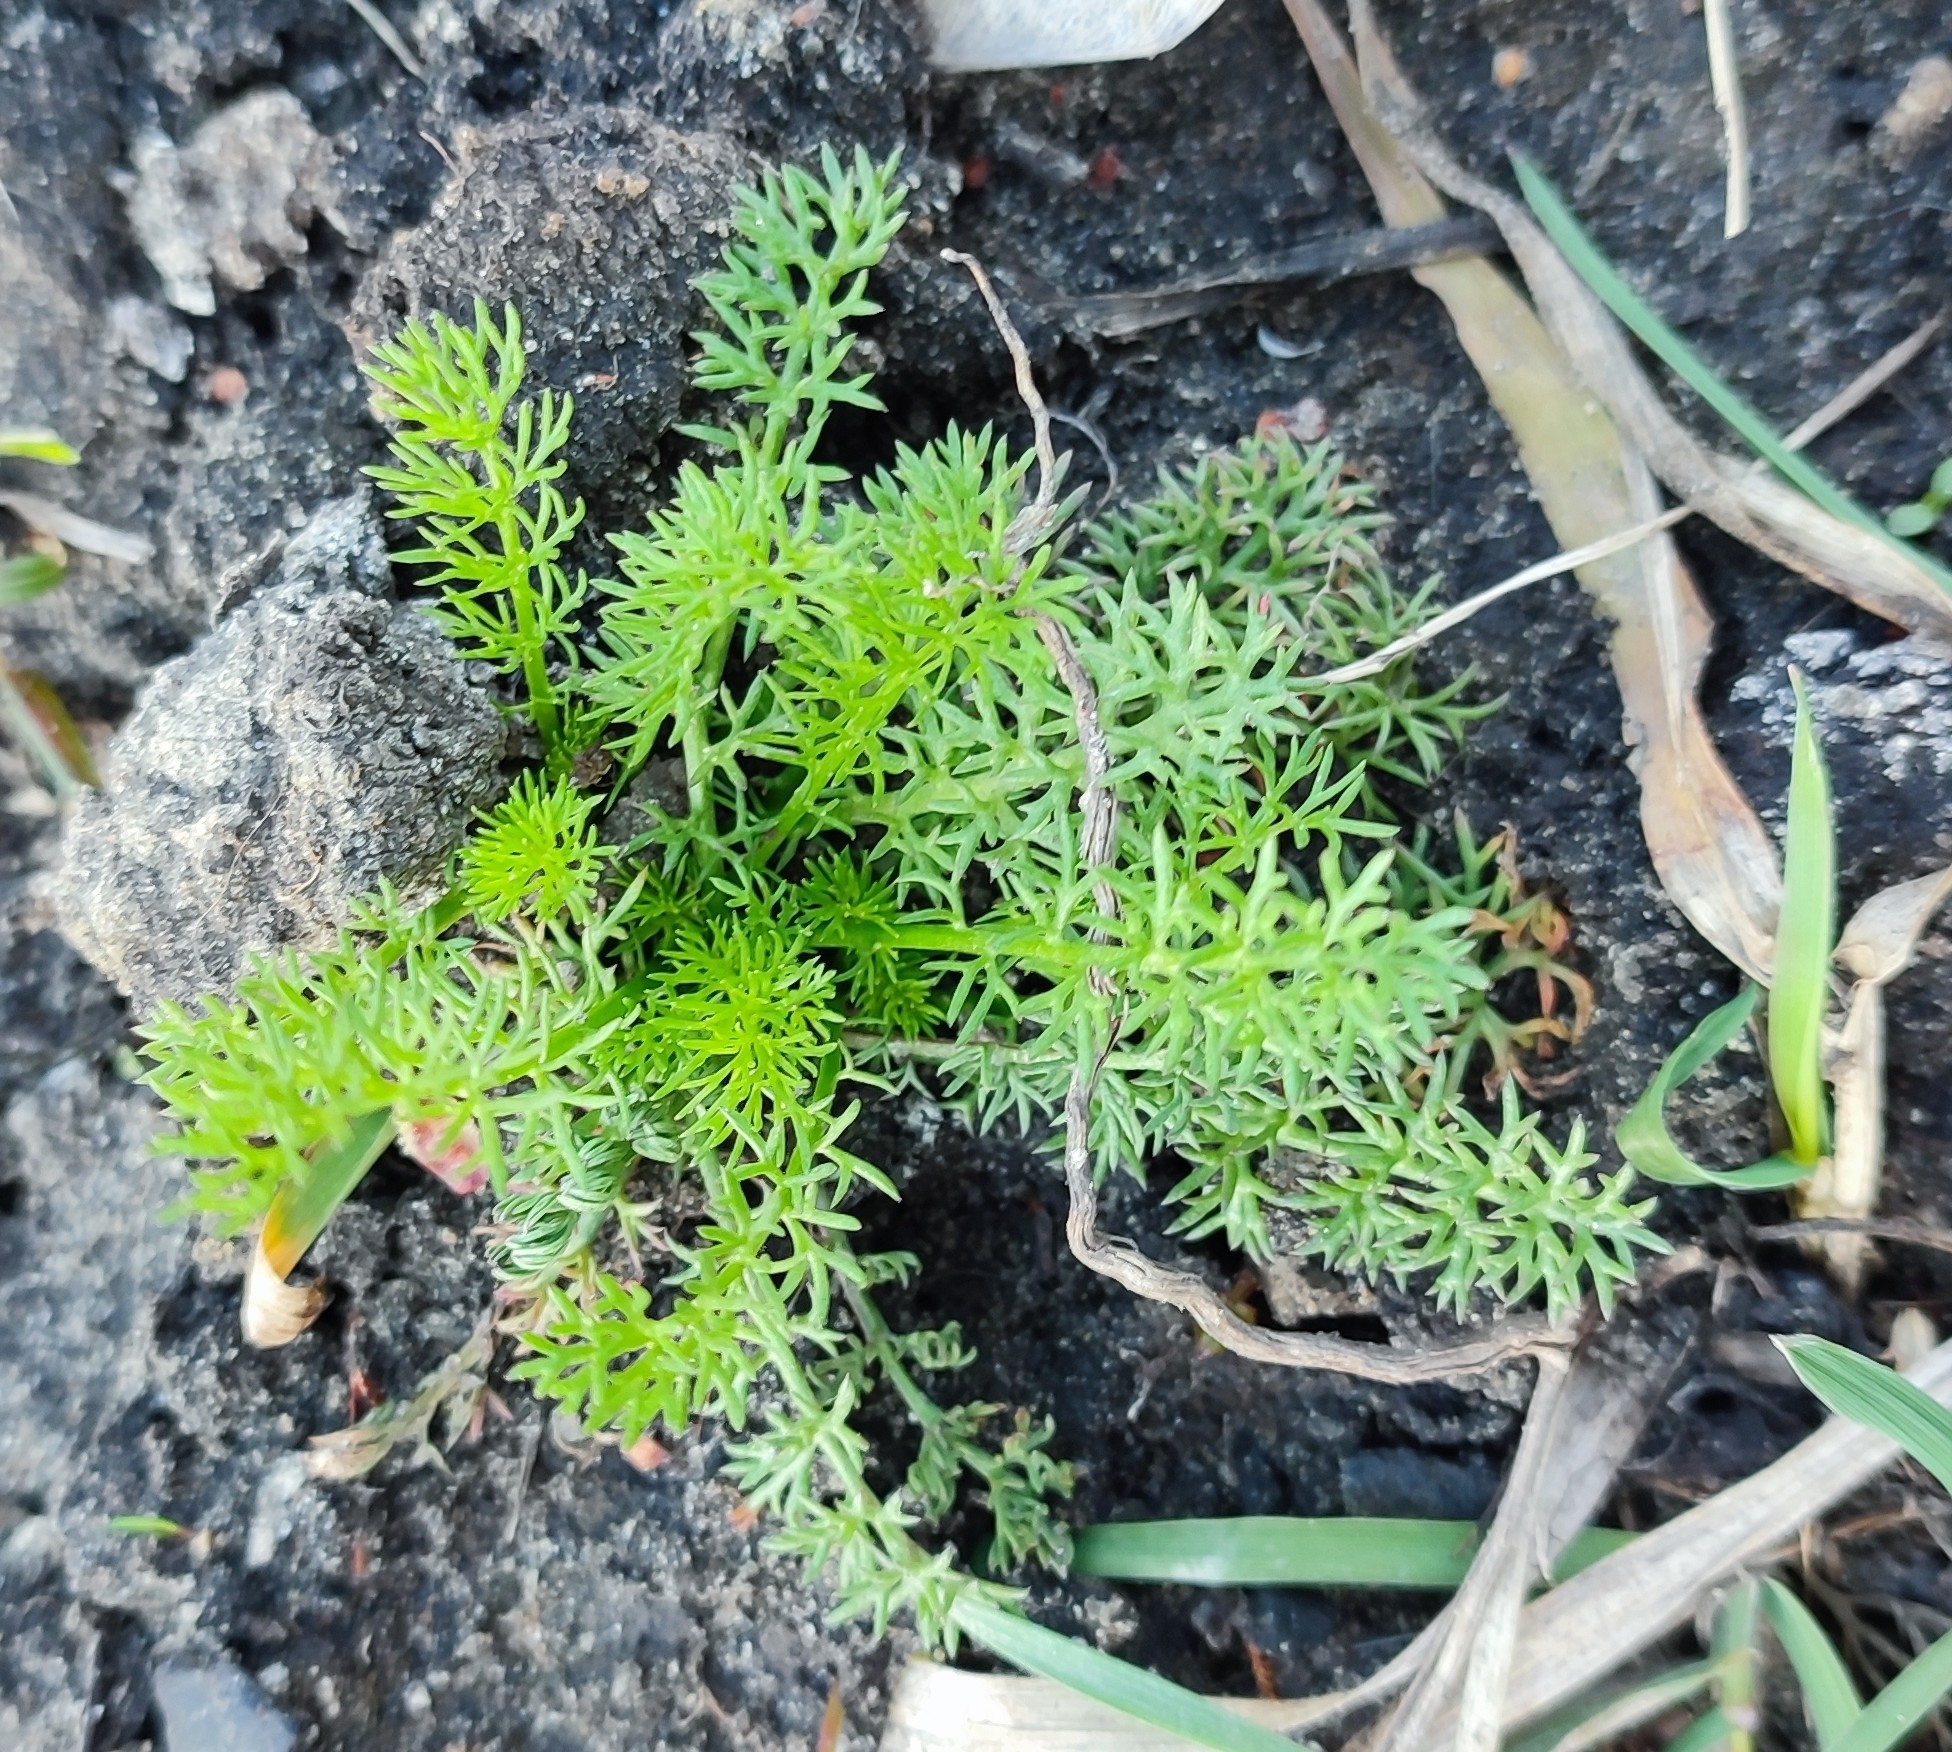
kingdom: Plantae
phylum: Tracheophyta
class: Magnoliopsida
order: Asterales
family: Asteraceae
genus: Tripleurospermum
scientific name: Tripleurospermum inodorum
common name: Scentless mayweed
